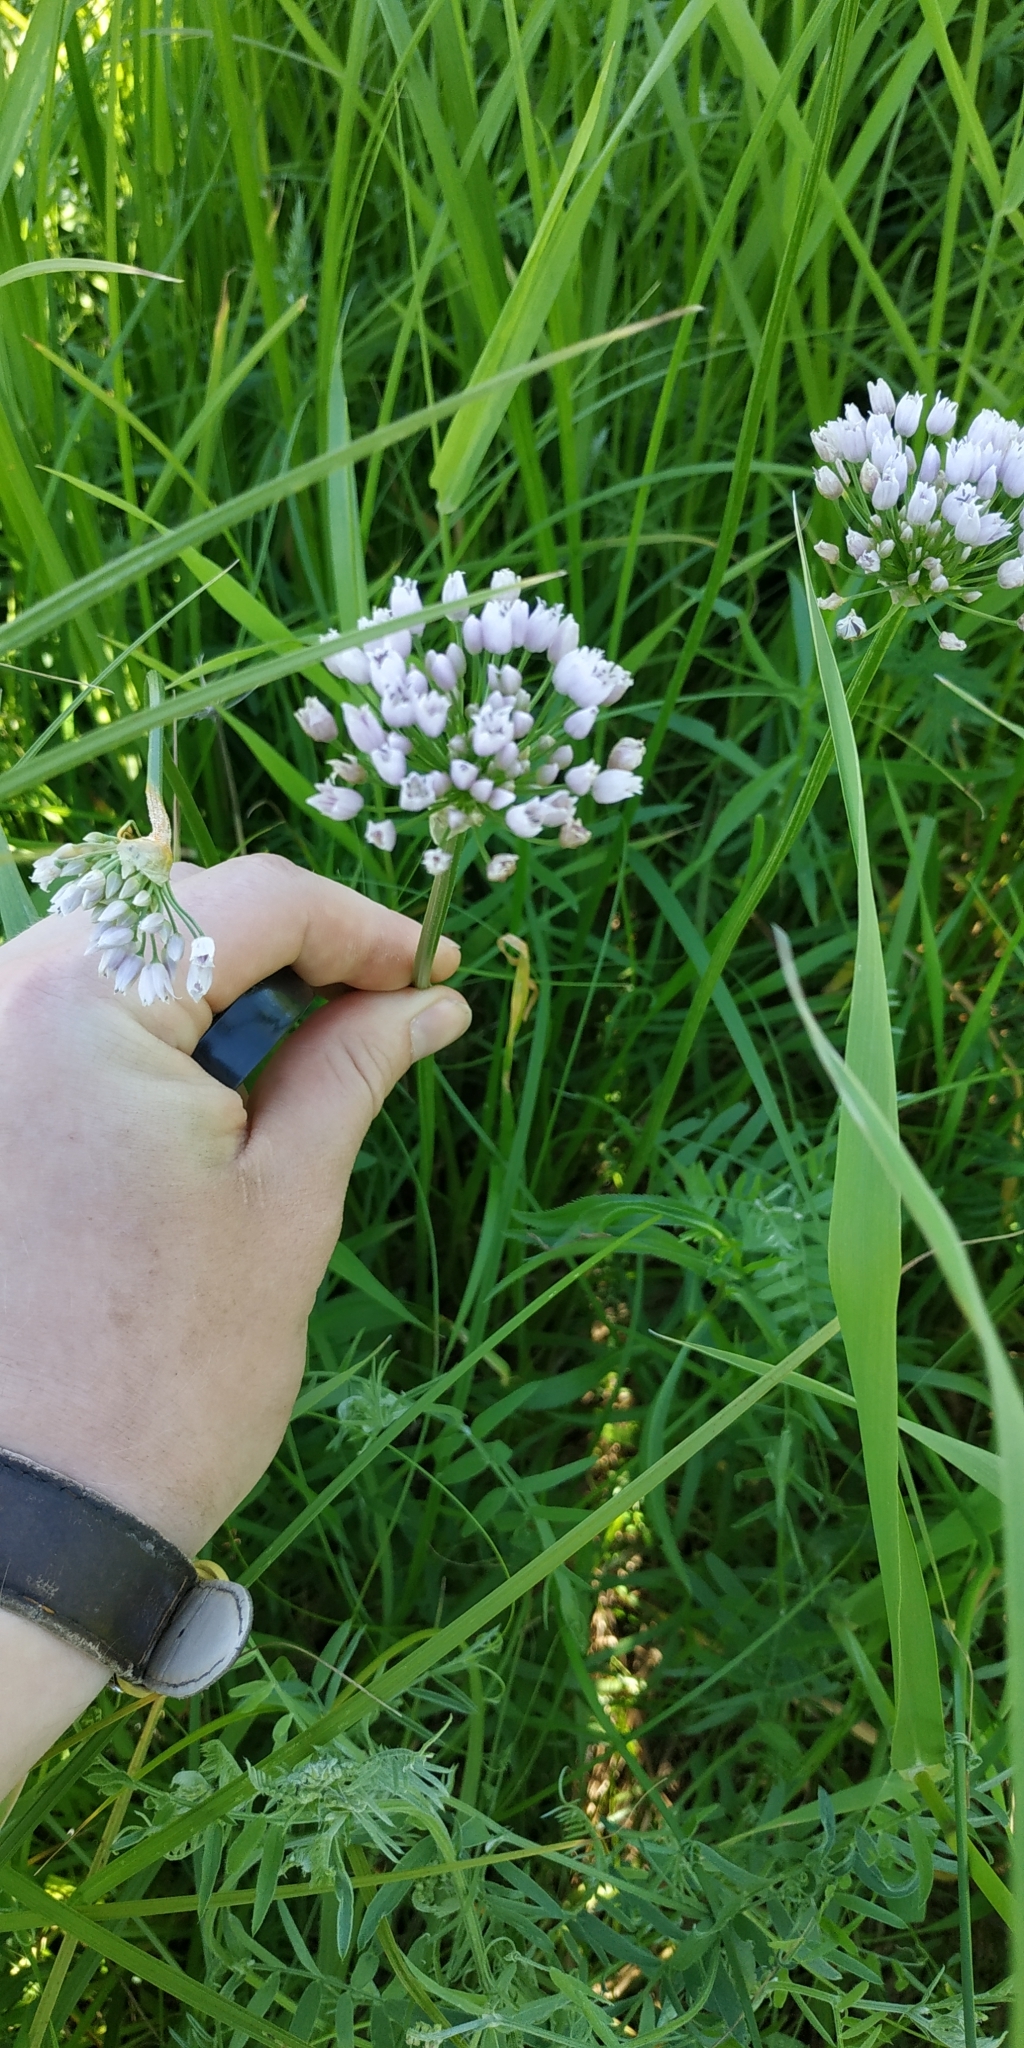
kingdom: Plantae
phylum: Tracheophyta
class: Liliopsida
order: Asparagales
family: Amaryllidaceae
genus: Allium
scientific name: Allium angulosum
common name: Mouse garlic
